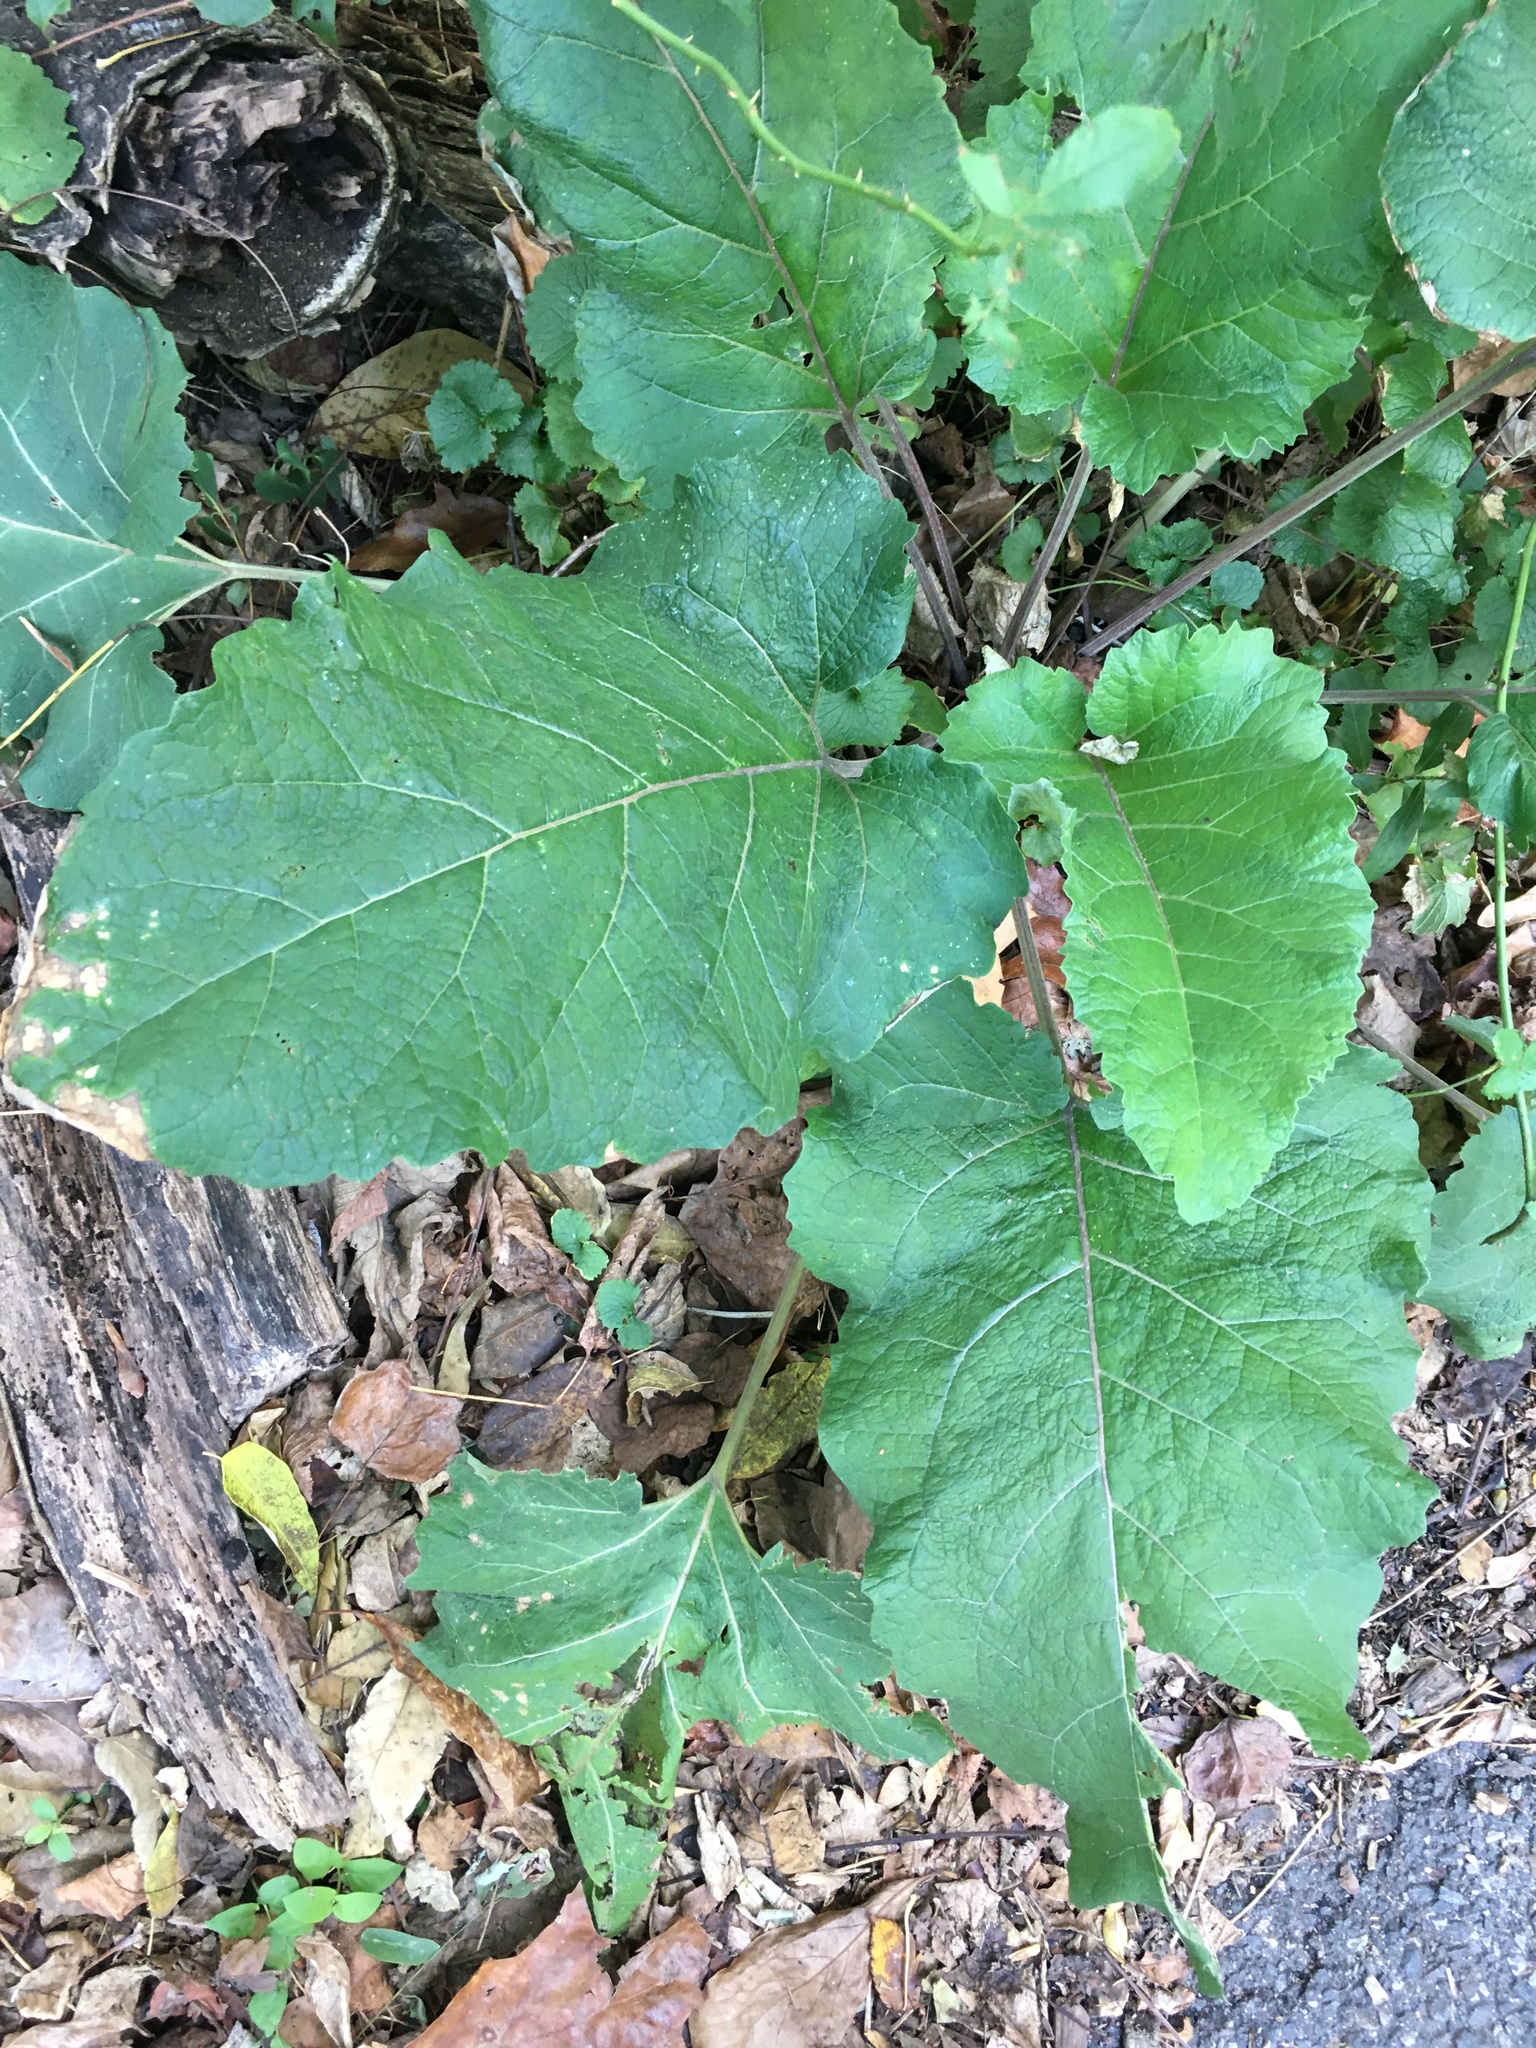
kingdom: Plantae
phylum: Tracheophyta
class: Magnoliopsida
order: Asterales
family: Asteraceae
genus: Arctium
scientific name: Arctium
